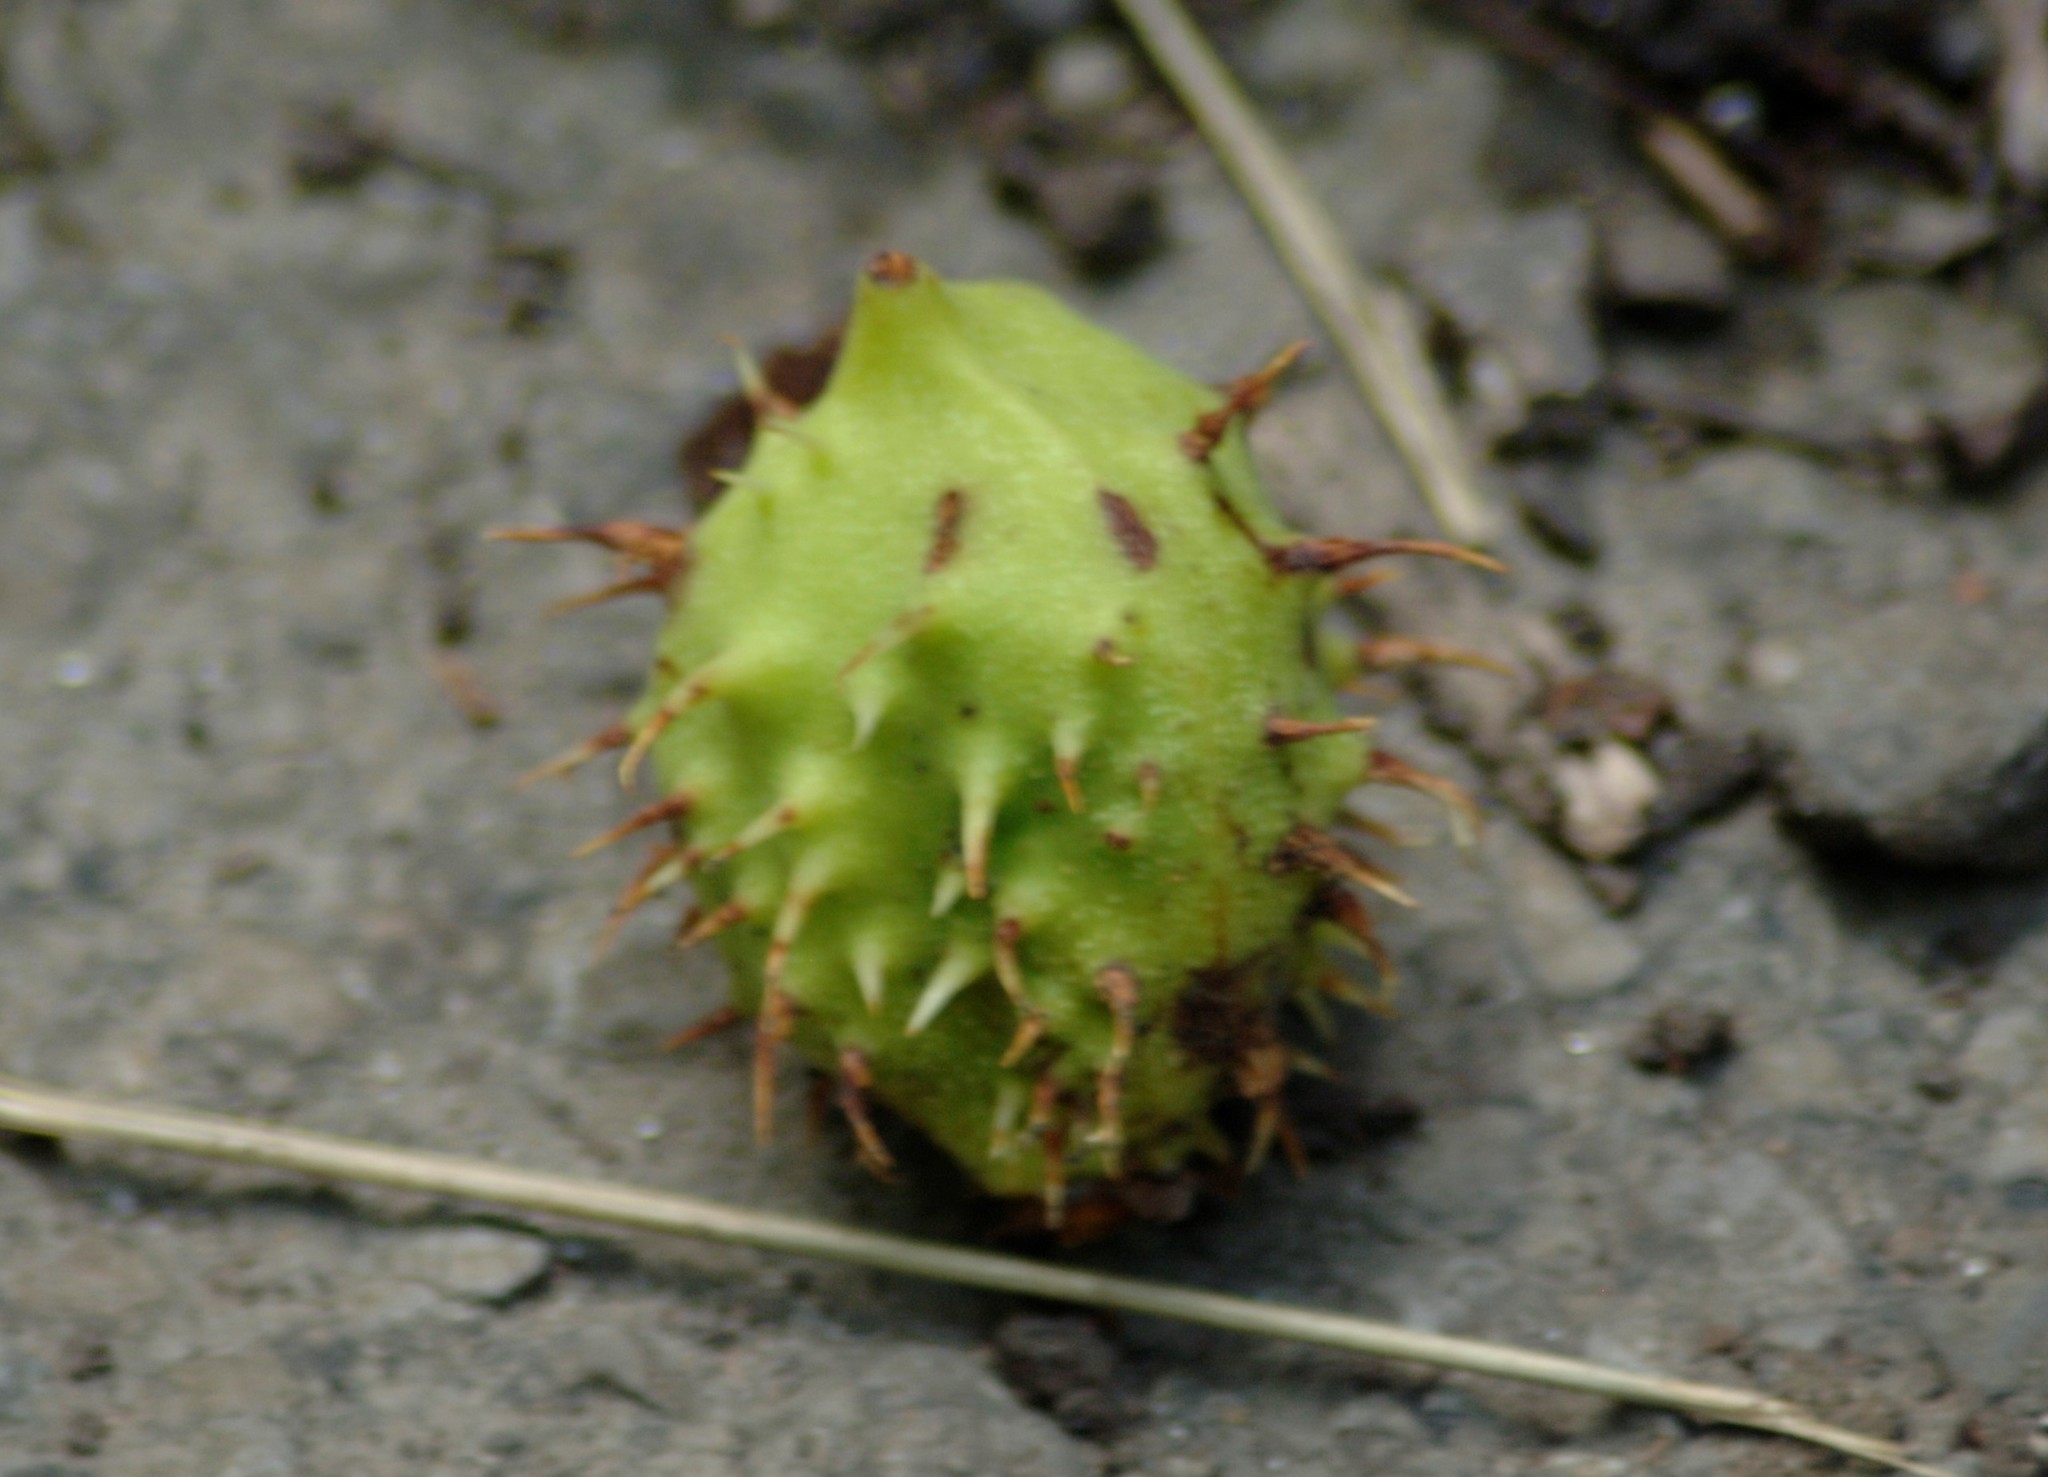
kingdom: Plantae
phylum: Tracheophyta
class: Magnoliopsida
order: Sapindales
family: Sapindaceae
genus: Aesculus
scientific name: Aesculus hippocastanum
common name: Horse-chestnut
